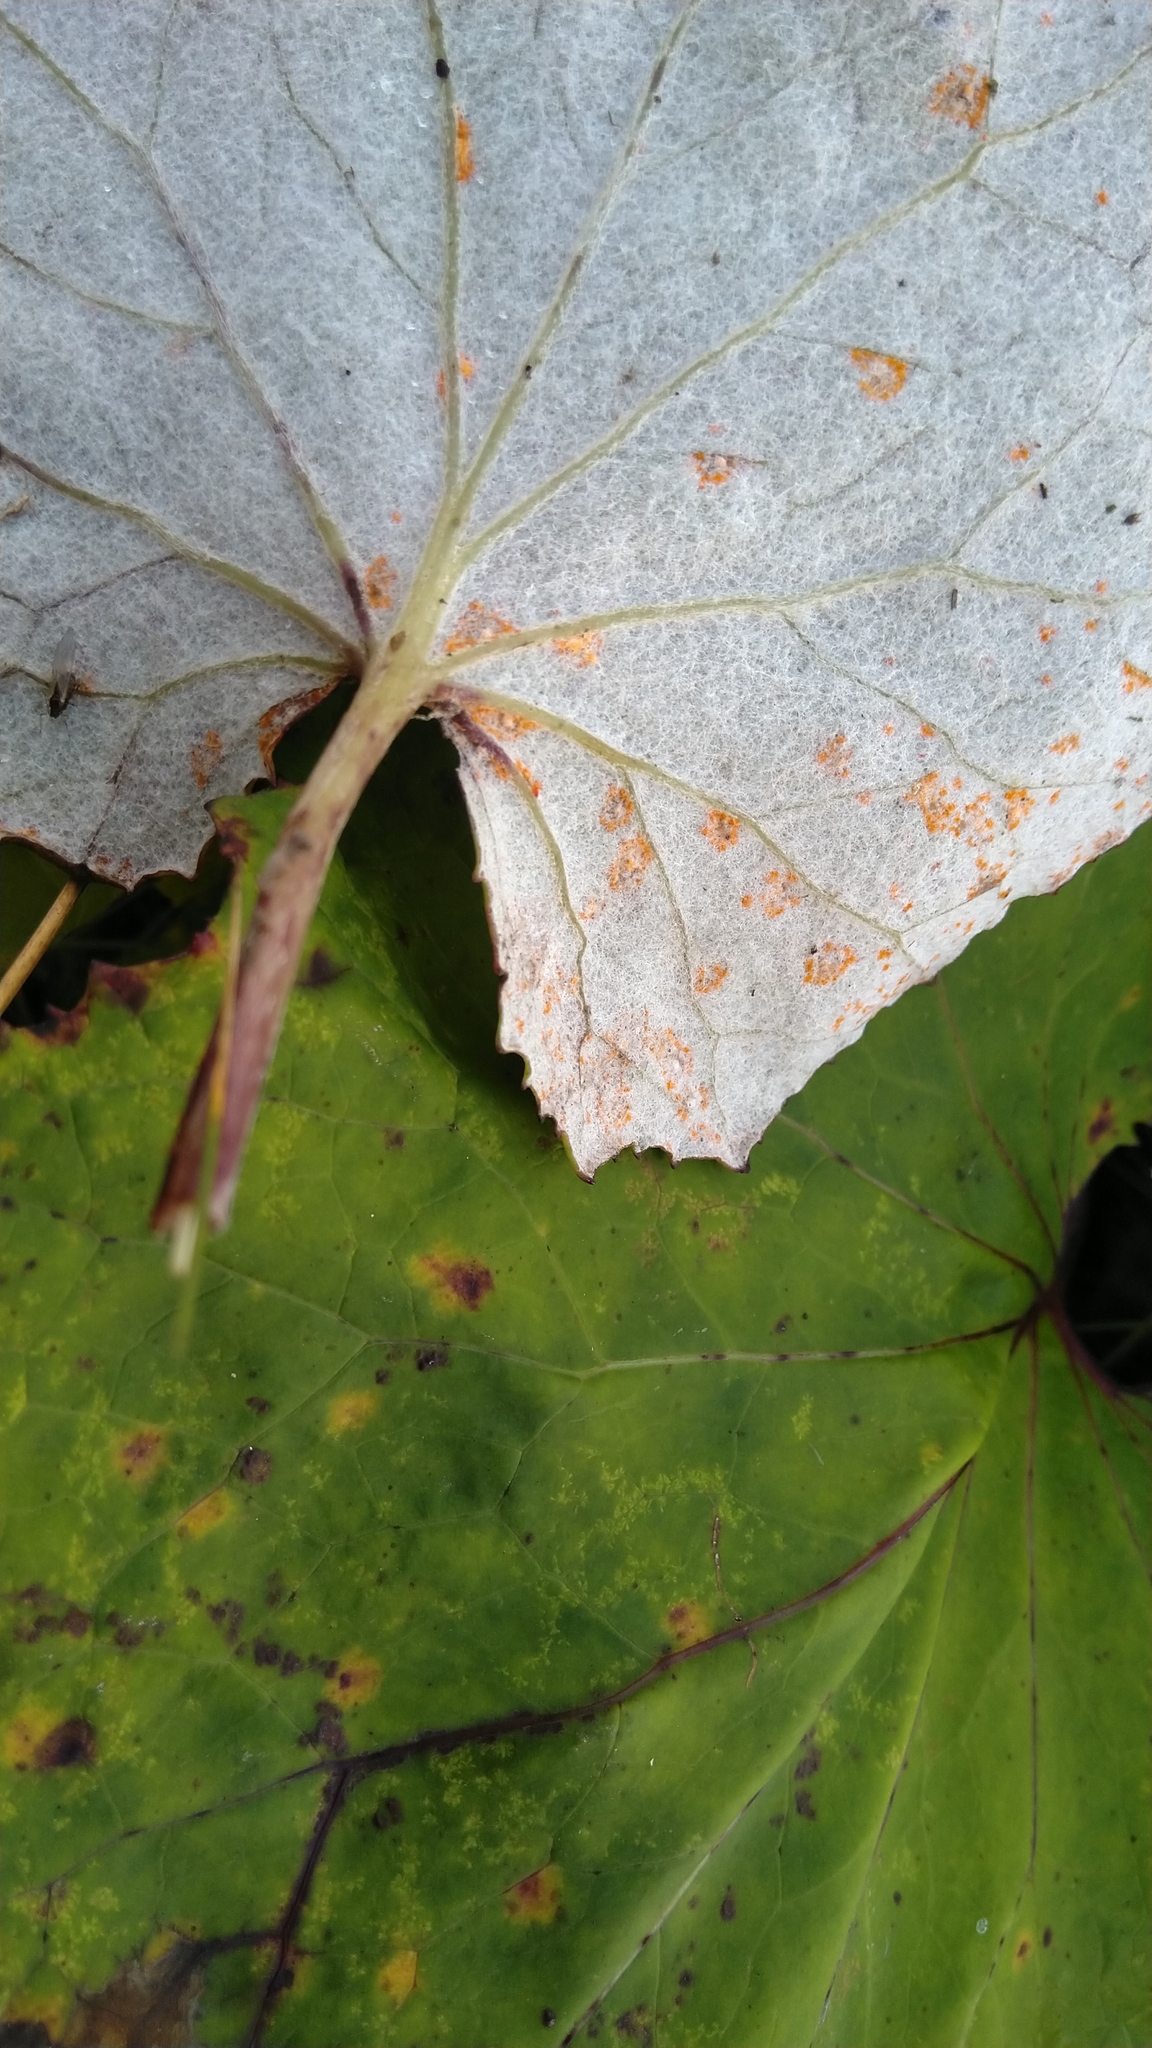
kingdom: Fungi
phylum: Basidiomycota
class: Pucciniomycetes
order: Pucciniales
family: Coleosporiaceae
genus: Coleosporium
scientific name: Coleosporium tussilaginis
